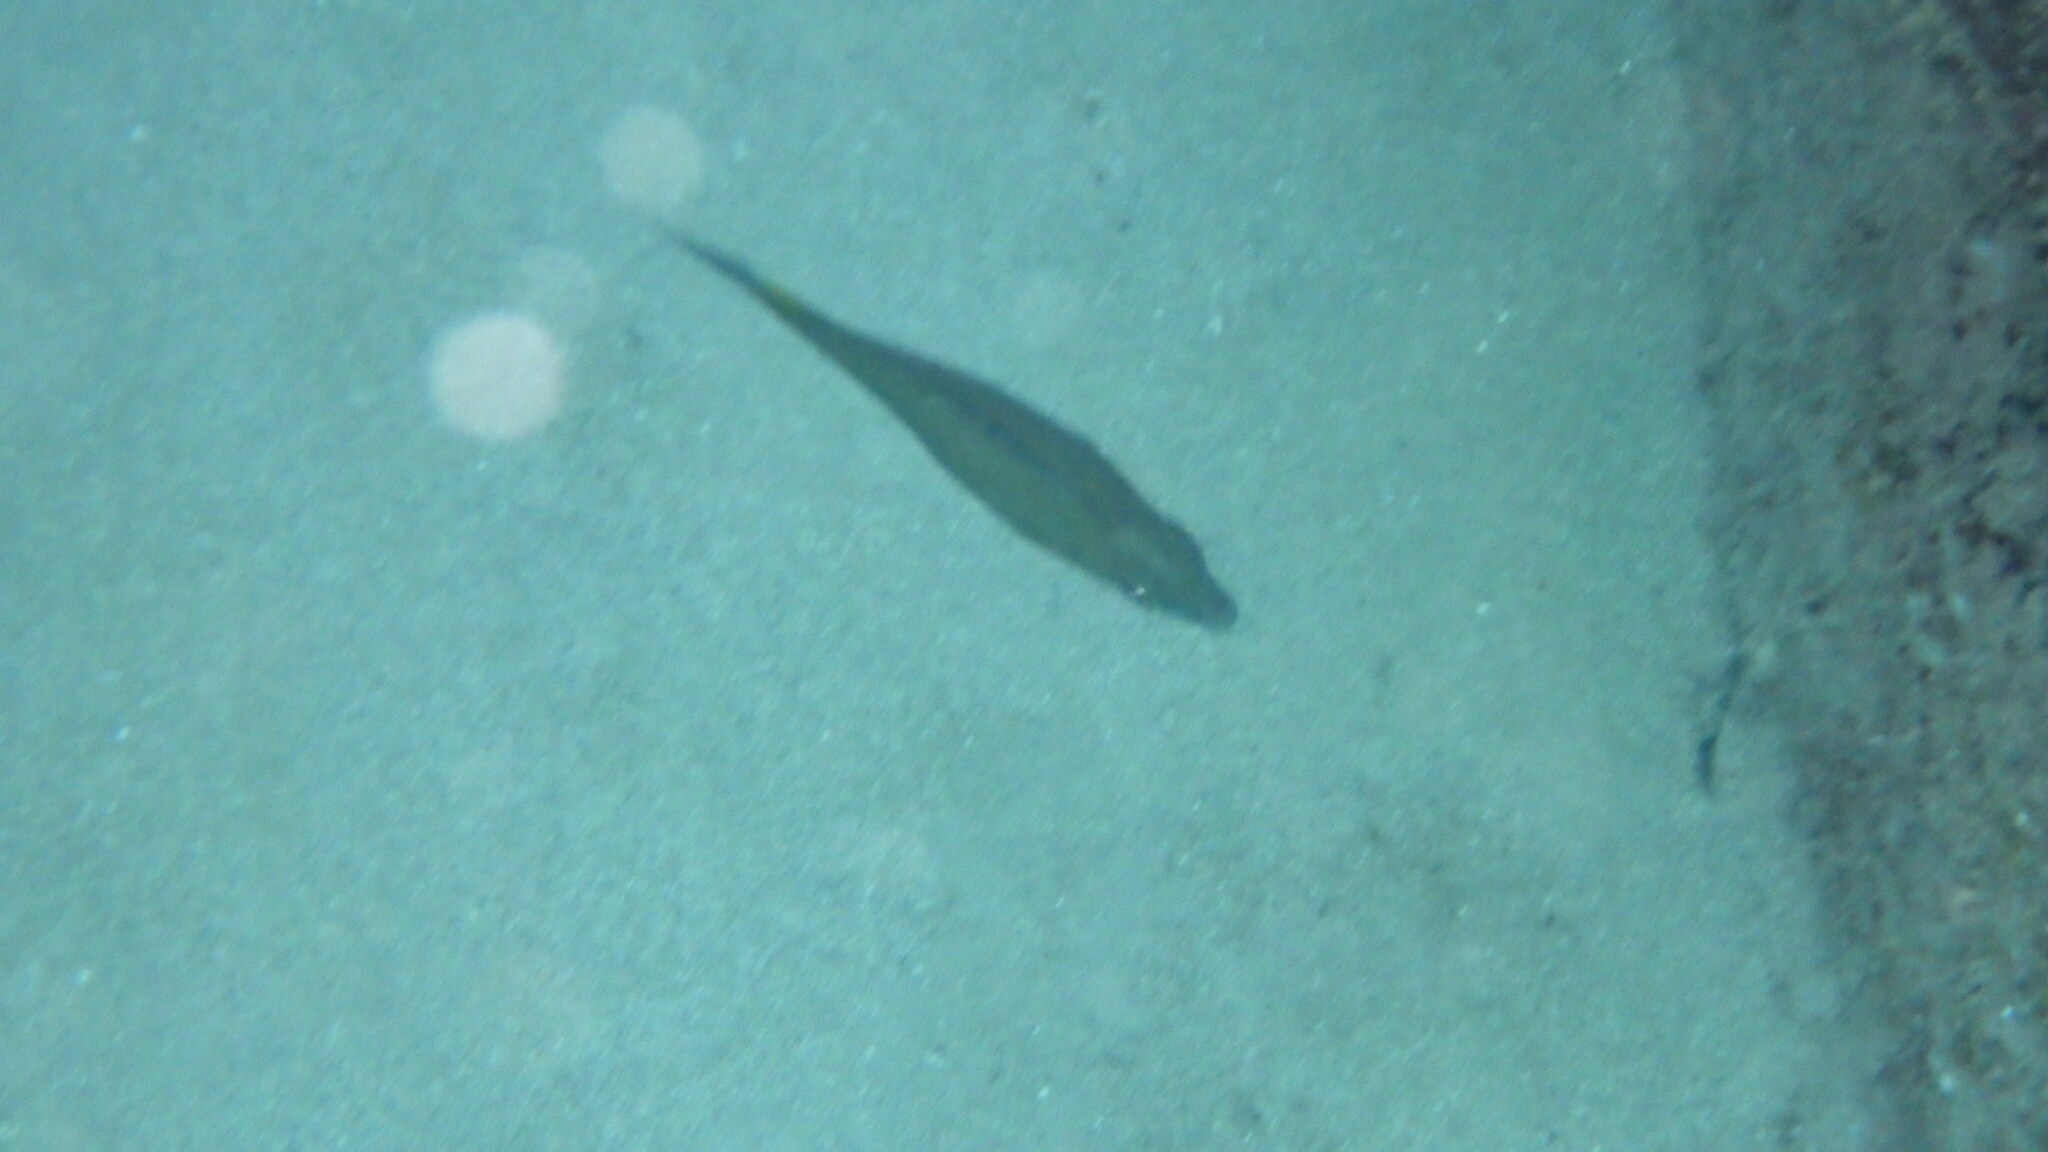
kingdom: Animalia
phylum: Chordata
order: Perciformes
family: Siganidae
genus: Siganus
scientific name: Siganus
